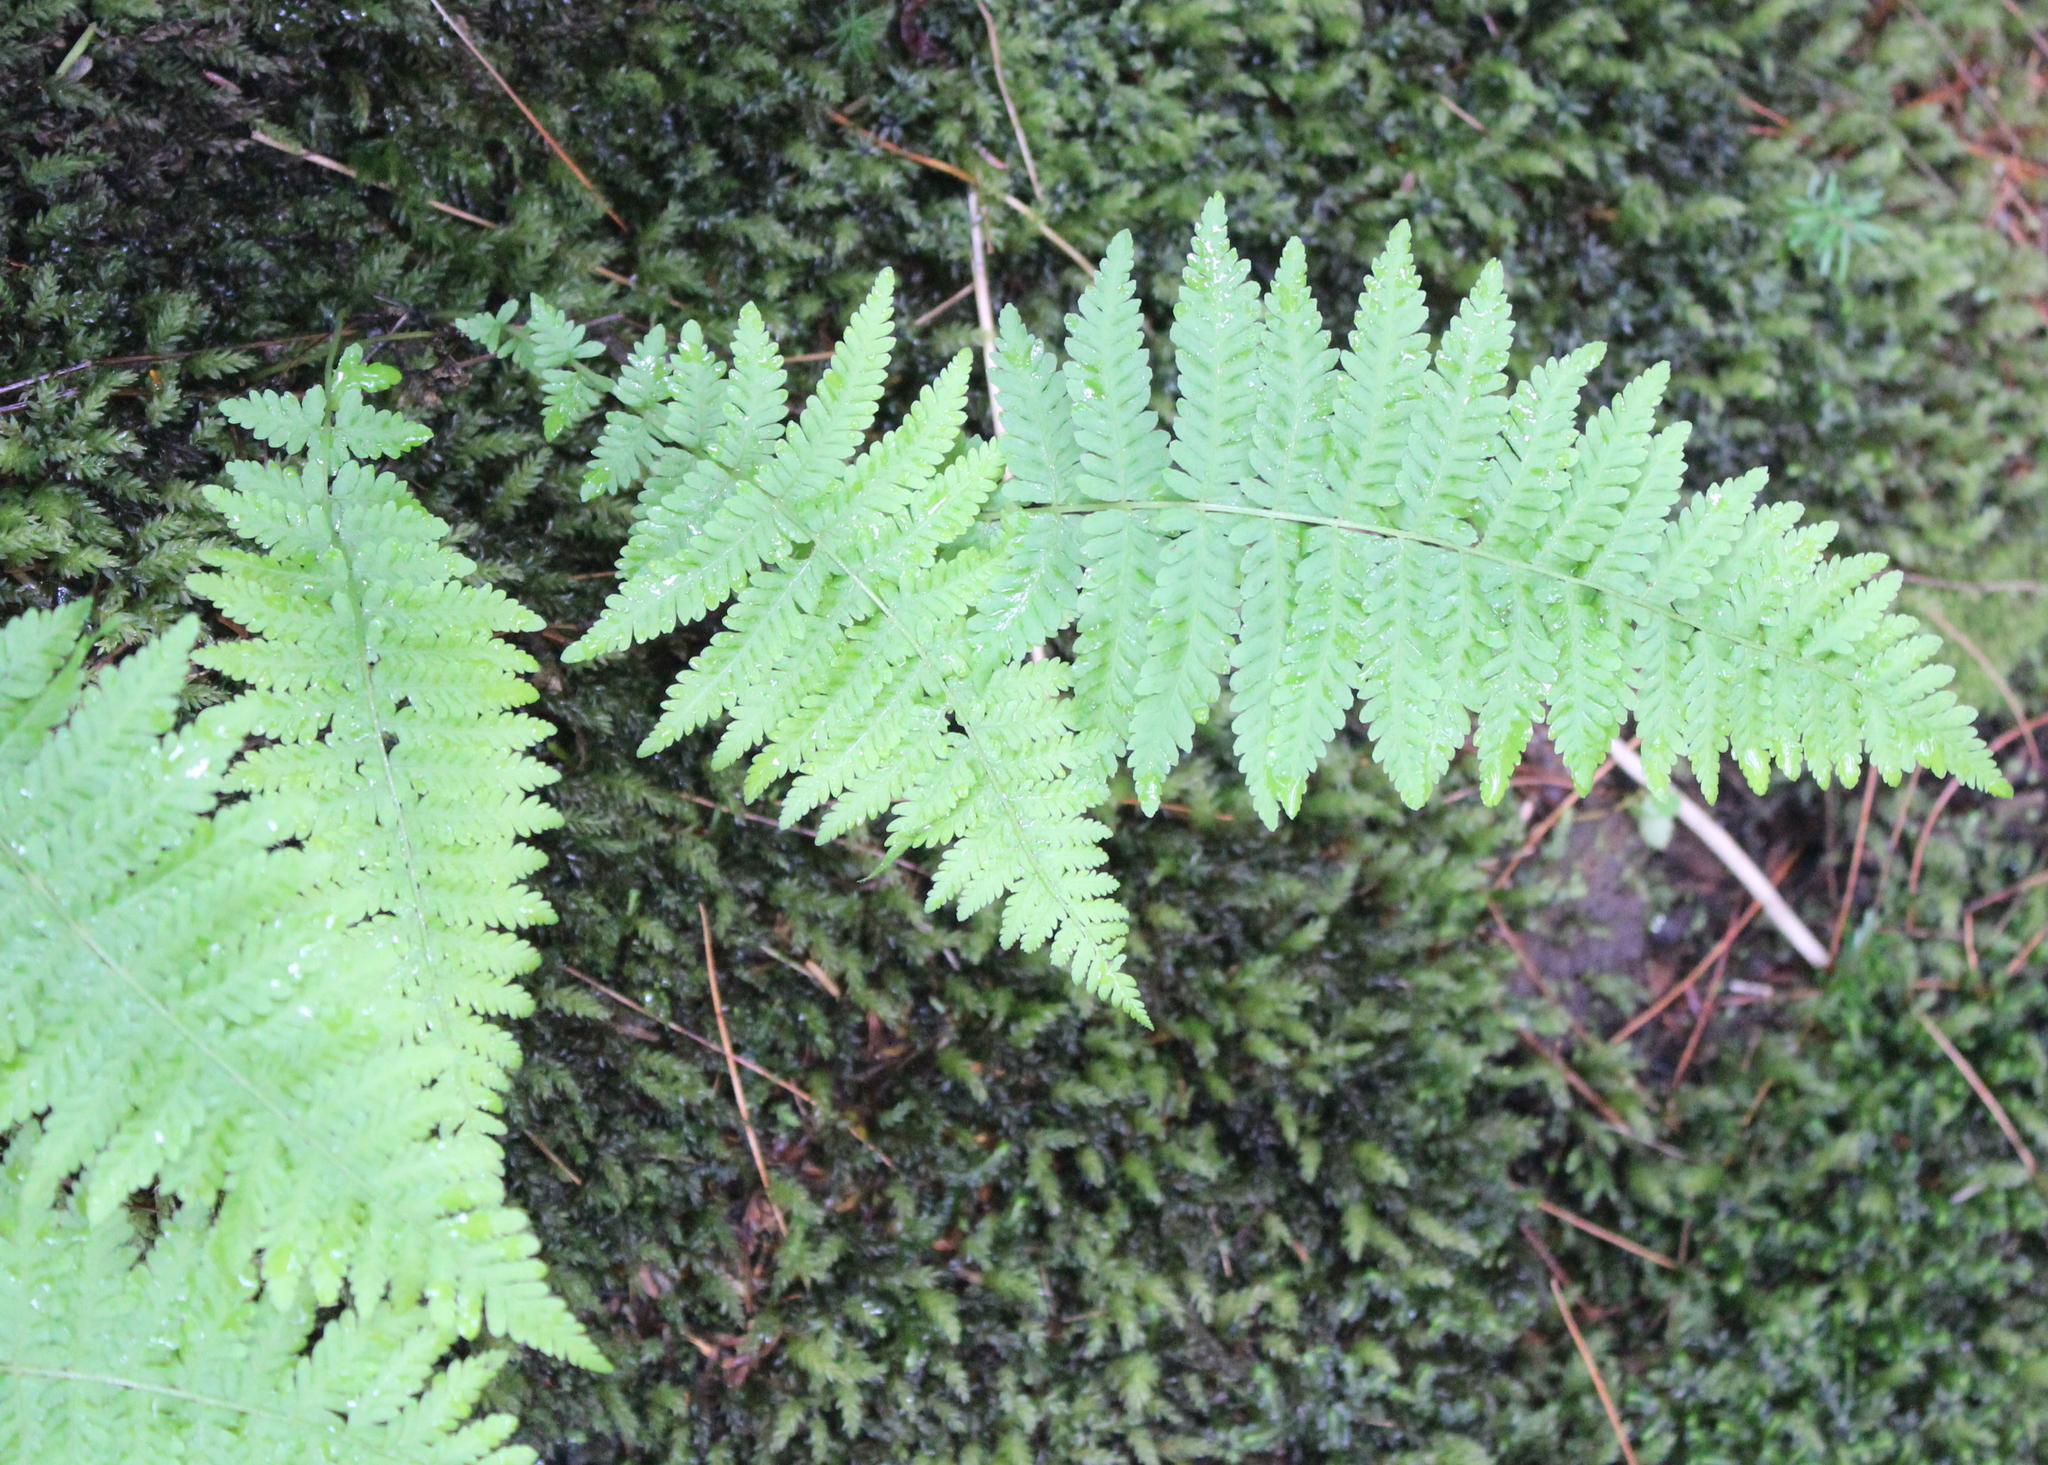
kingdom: Plantae
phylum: Tracheophyta
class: Polypodiopsida
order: Polypodiales
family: Thelypteridaceae
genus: Amauropelta
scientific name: Amauropelta noveboracensis
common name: New york fern
